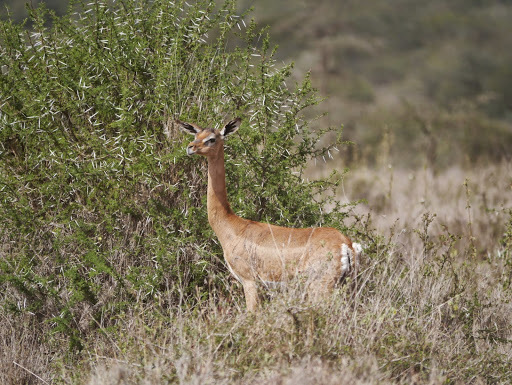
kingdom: Animalia
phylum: Chordata
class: Mammalia
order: Artiodactyla
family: Bovidae
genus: Litocranius
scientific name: Litocranius walleri
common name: Gerenuk
